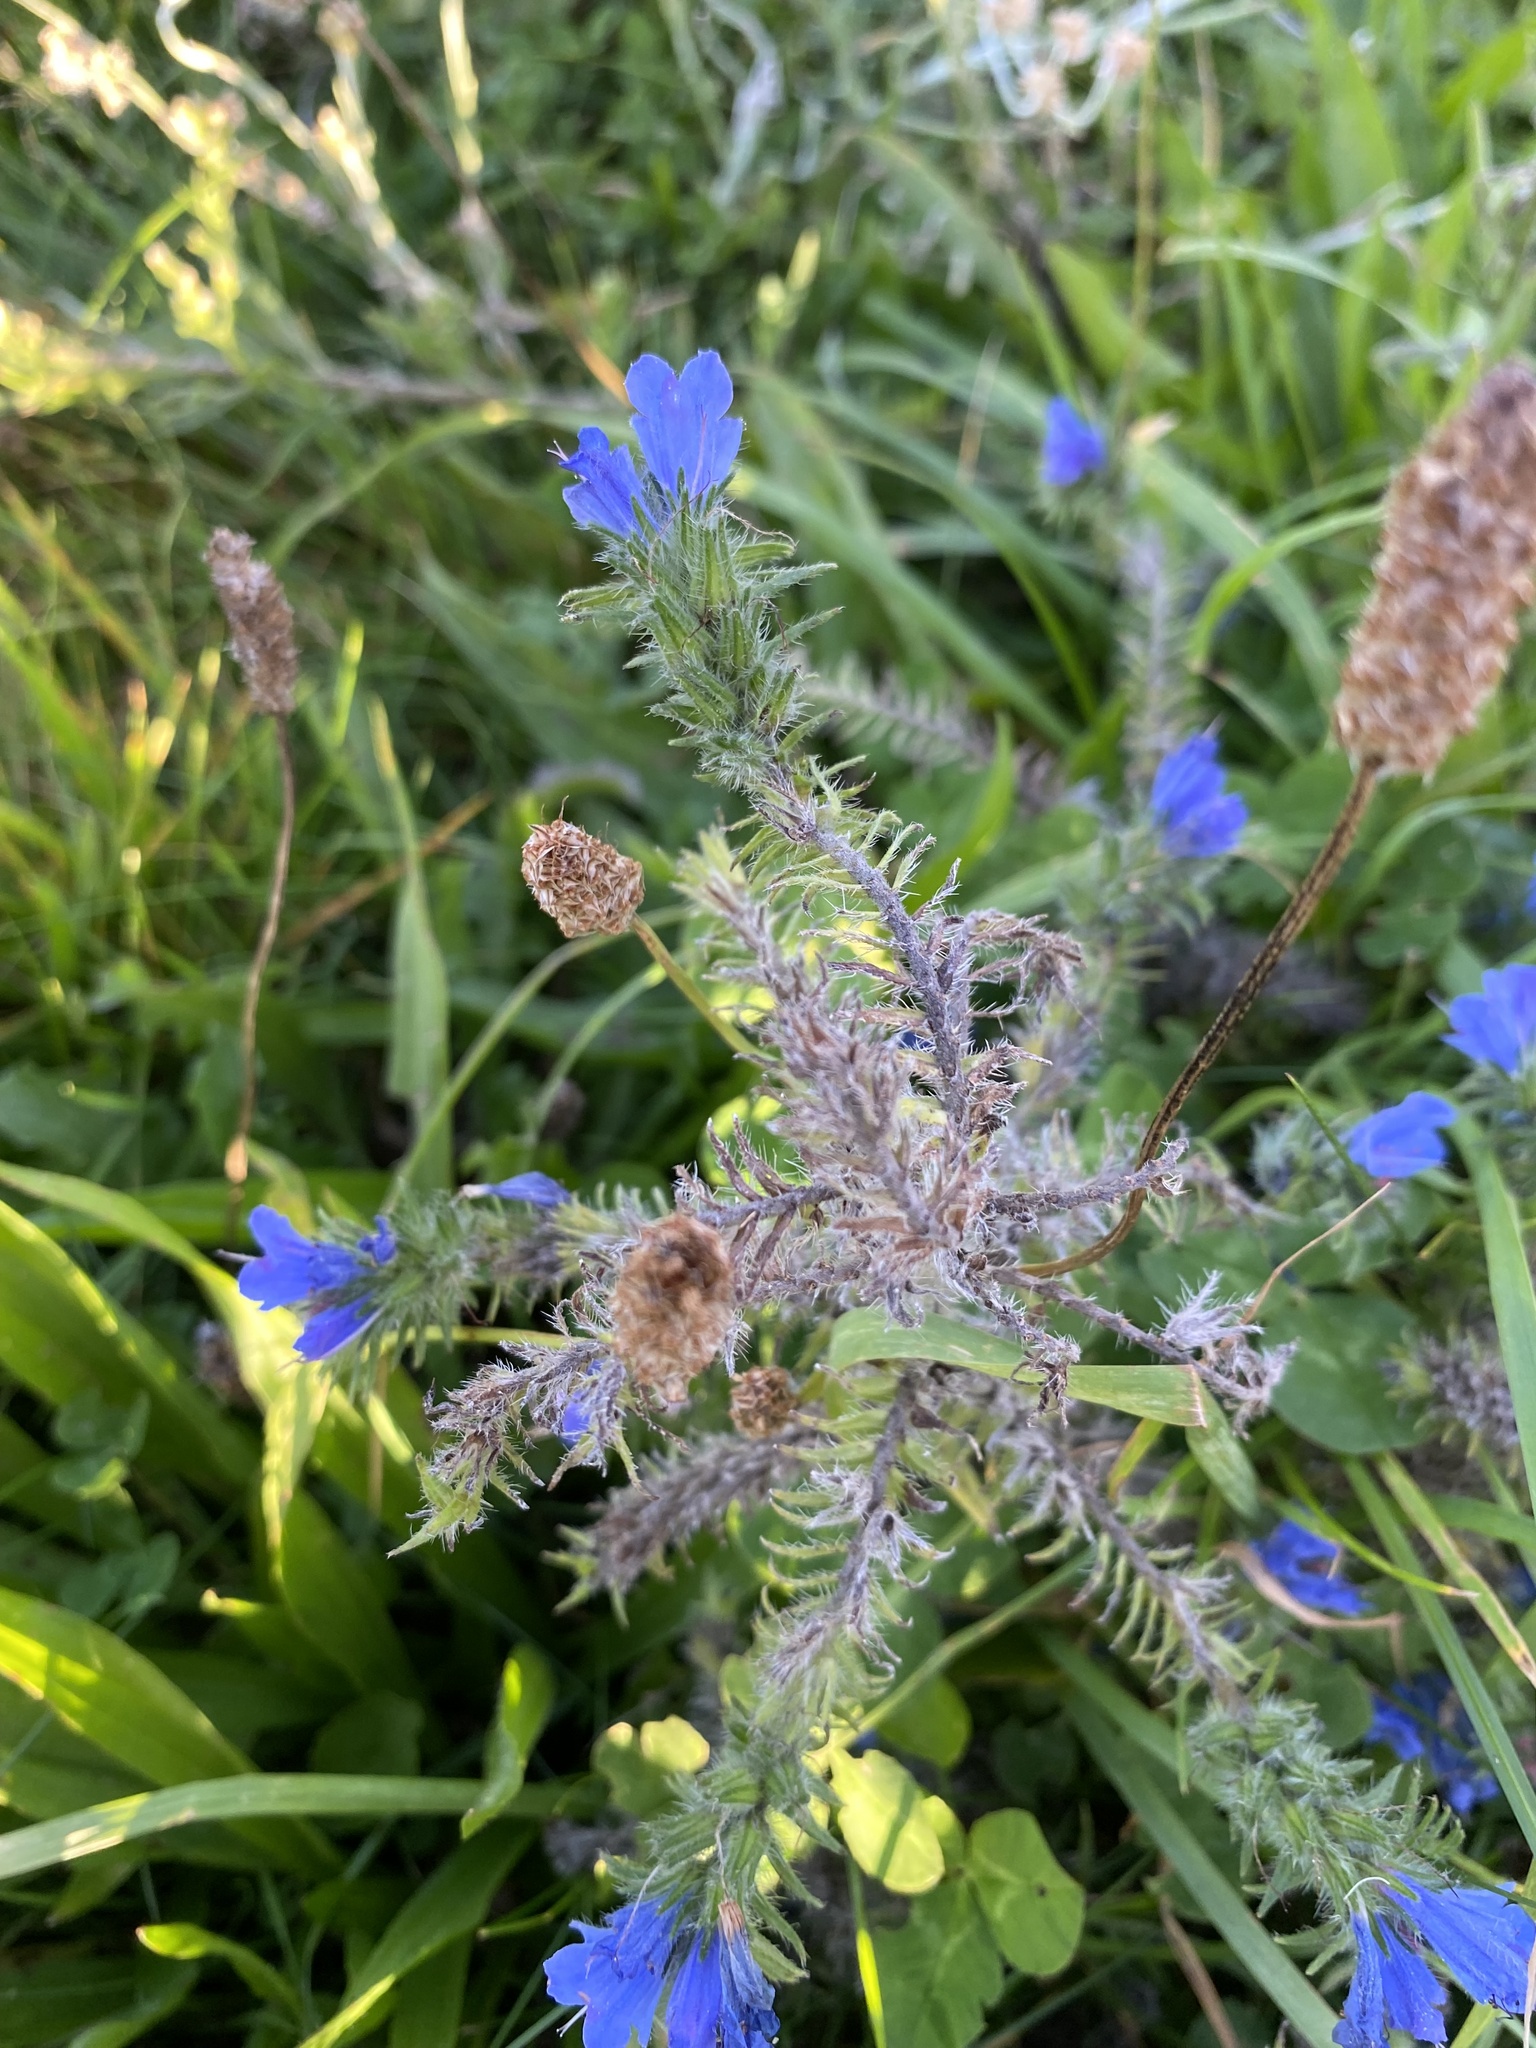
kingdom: Plantae
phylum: Tracheophyta
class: Magnoliopsida
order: Boraginales
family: Boraginaceae
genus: Echium
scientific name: Echium vulgare
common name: Common viper's bugloss
